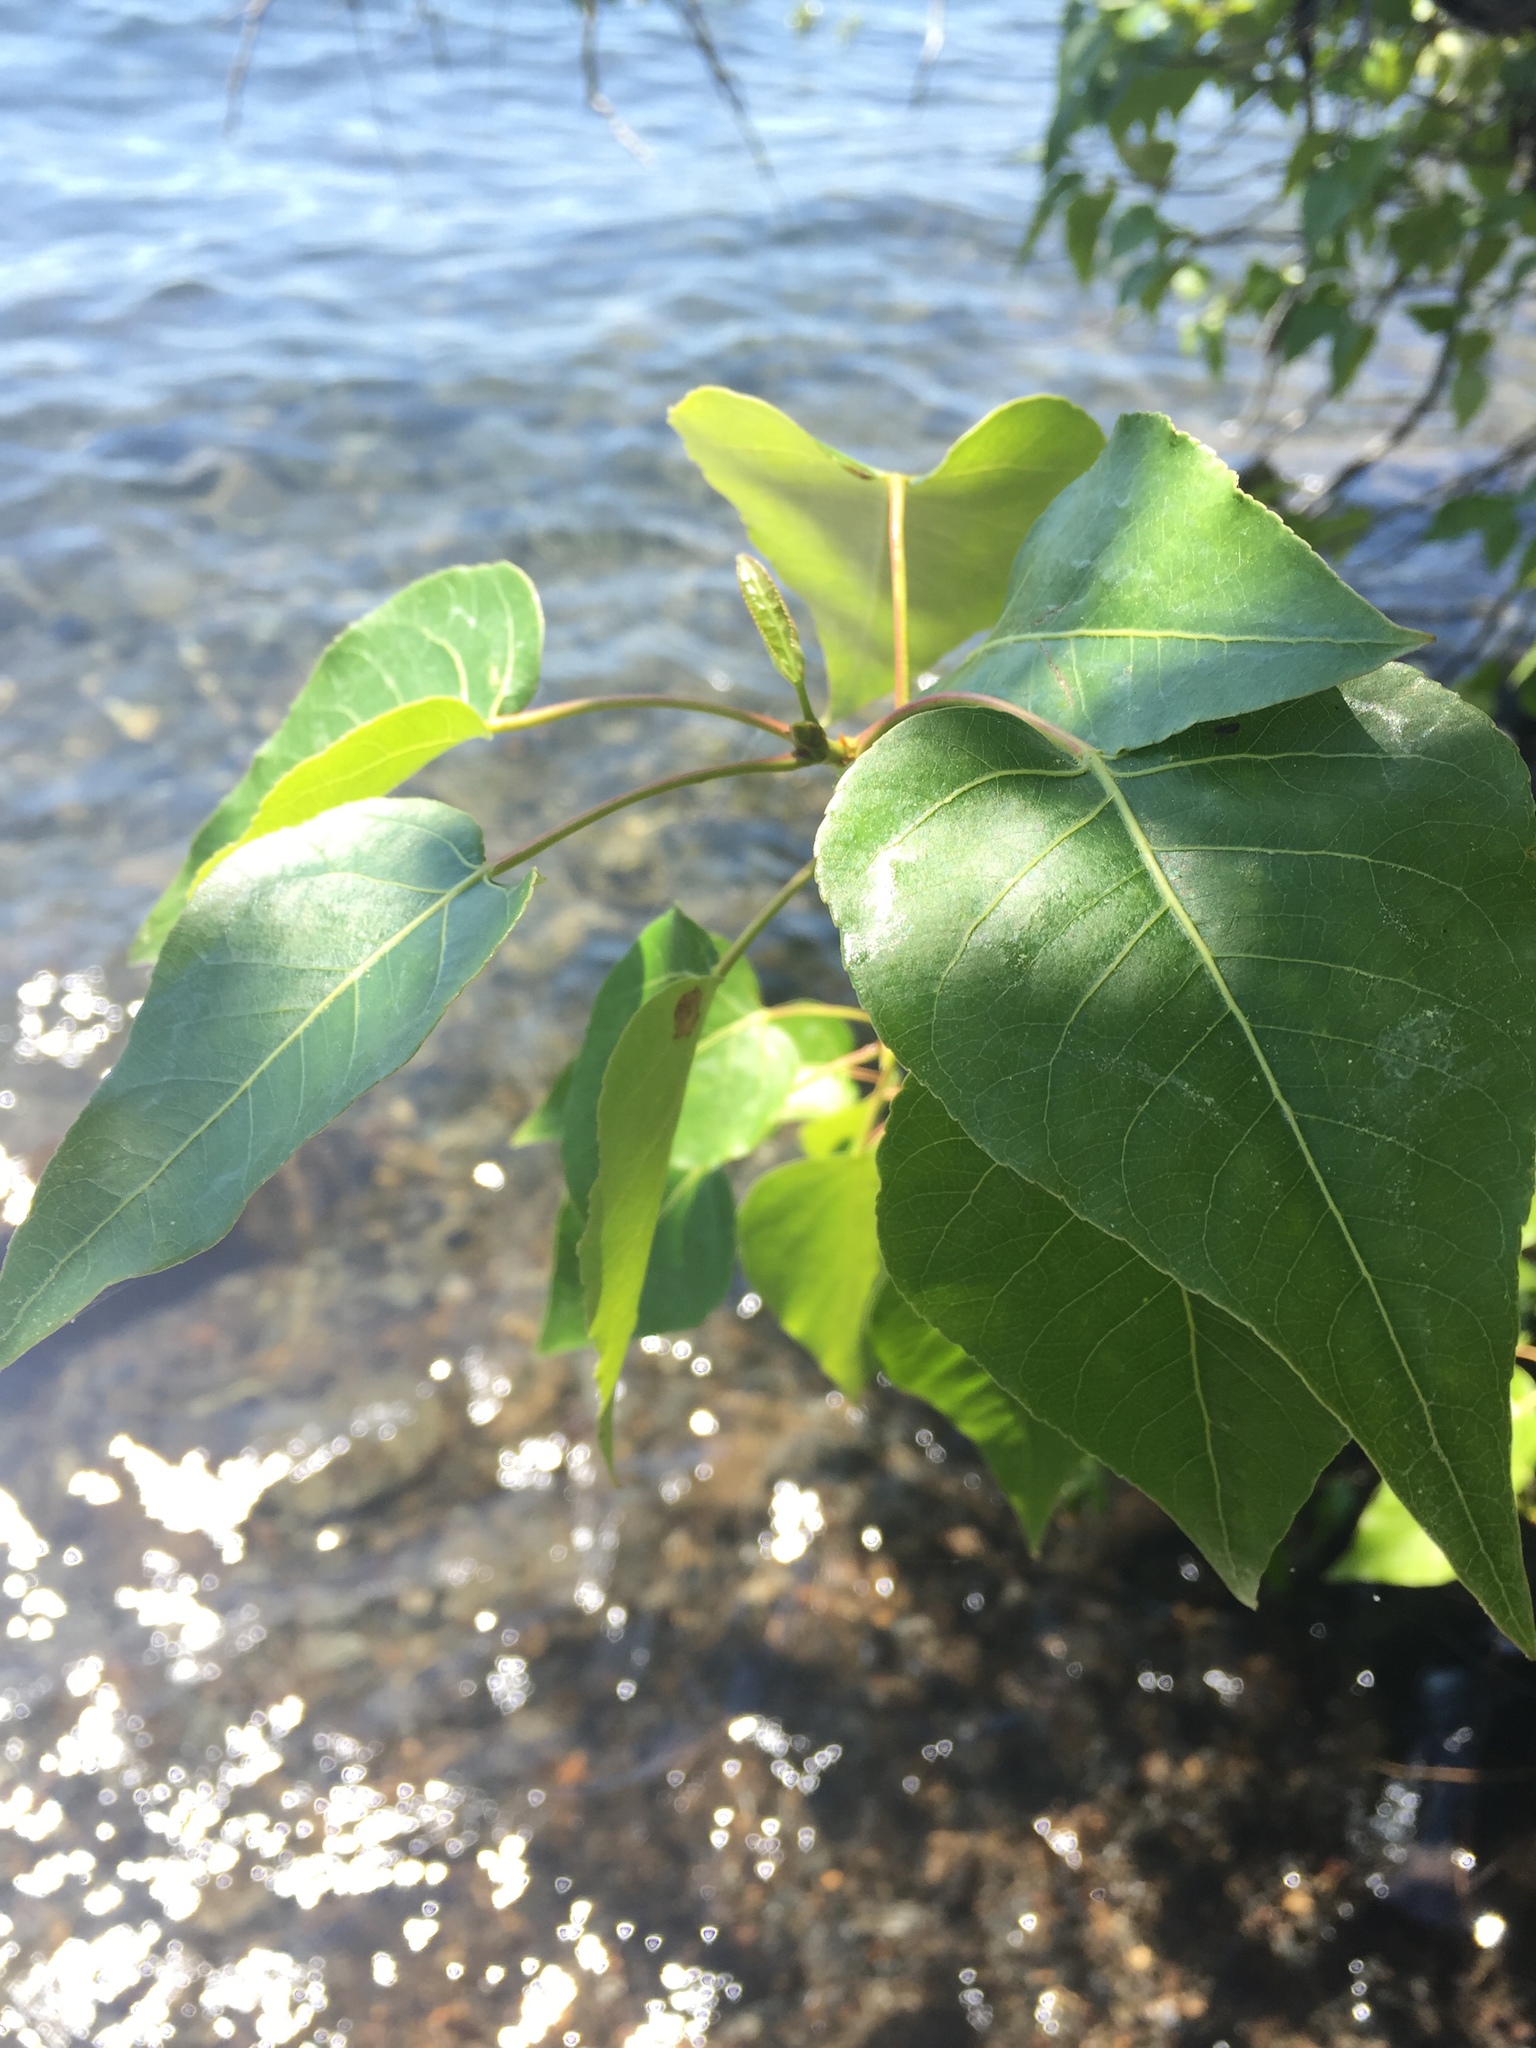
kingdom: Plantae
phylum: Tracheophyta
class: Magnoliopsida
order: Malpighiales
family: Salicaceae
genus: Populus
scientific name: Populus trichocarpa
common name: Black cottonwood
